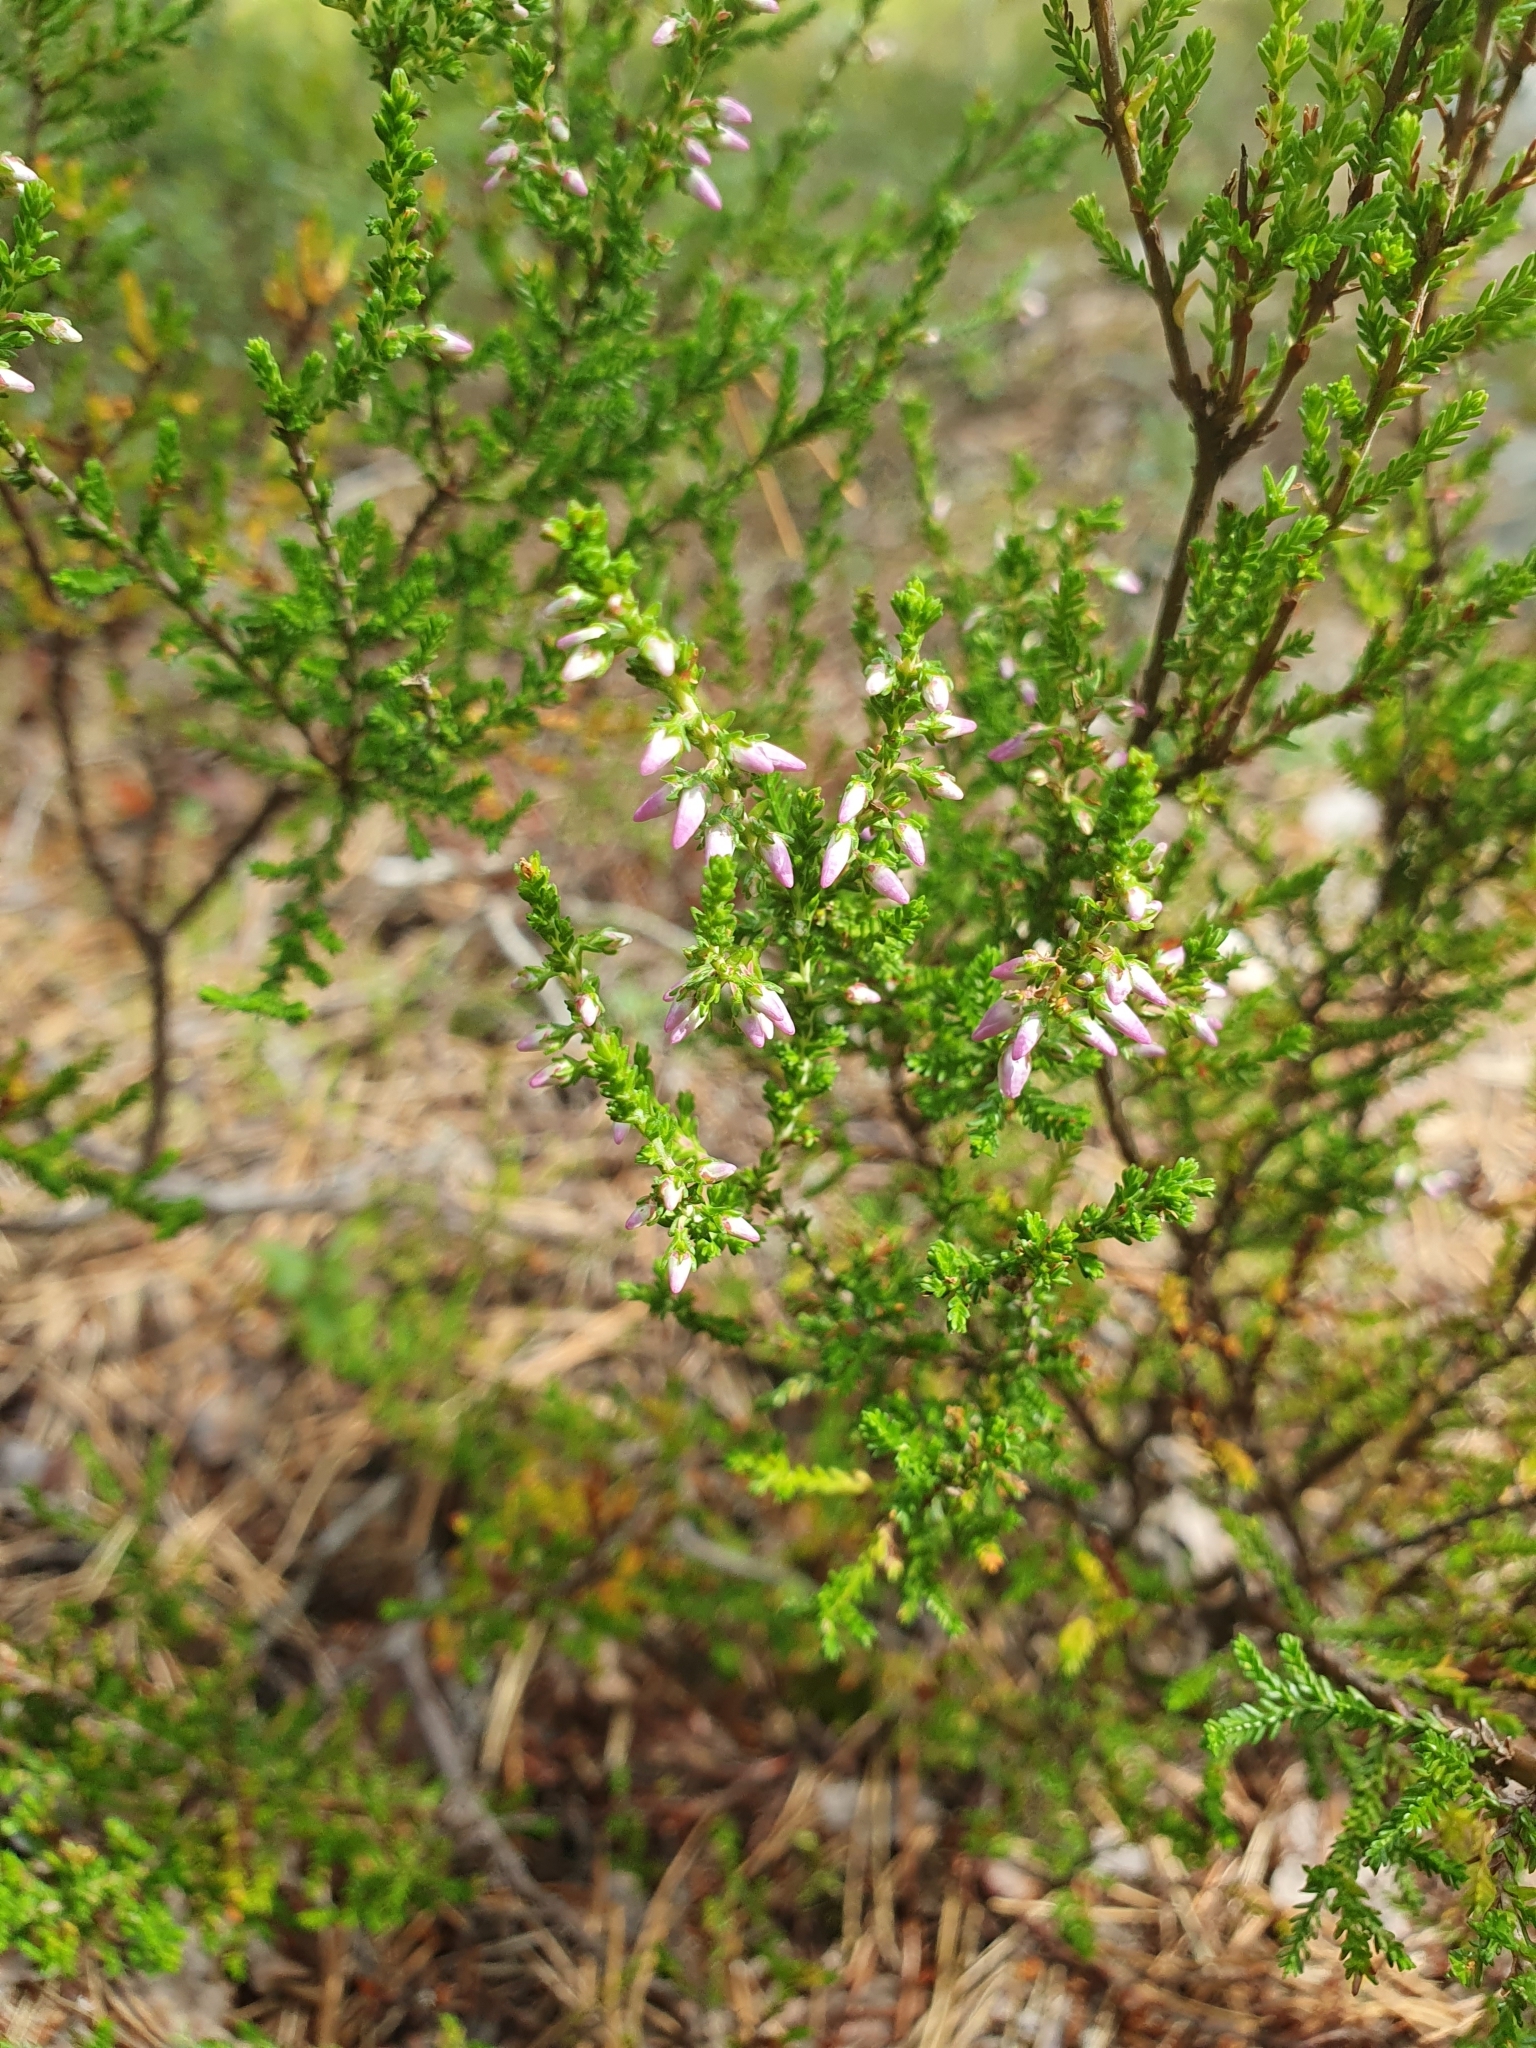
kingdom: Plantae
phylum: Tracheophyta
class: Magnoliopsida
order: Ericales
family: Ericaceae
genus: Calluna
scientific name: Calluna vulgaris
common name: Heather
